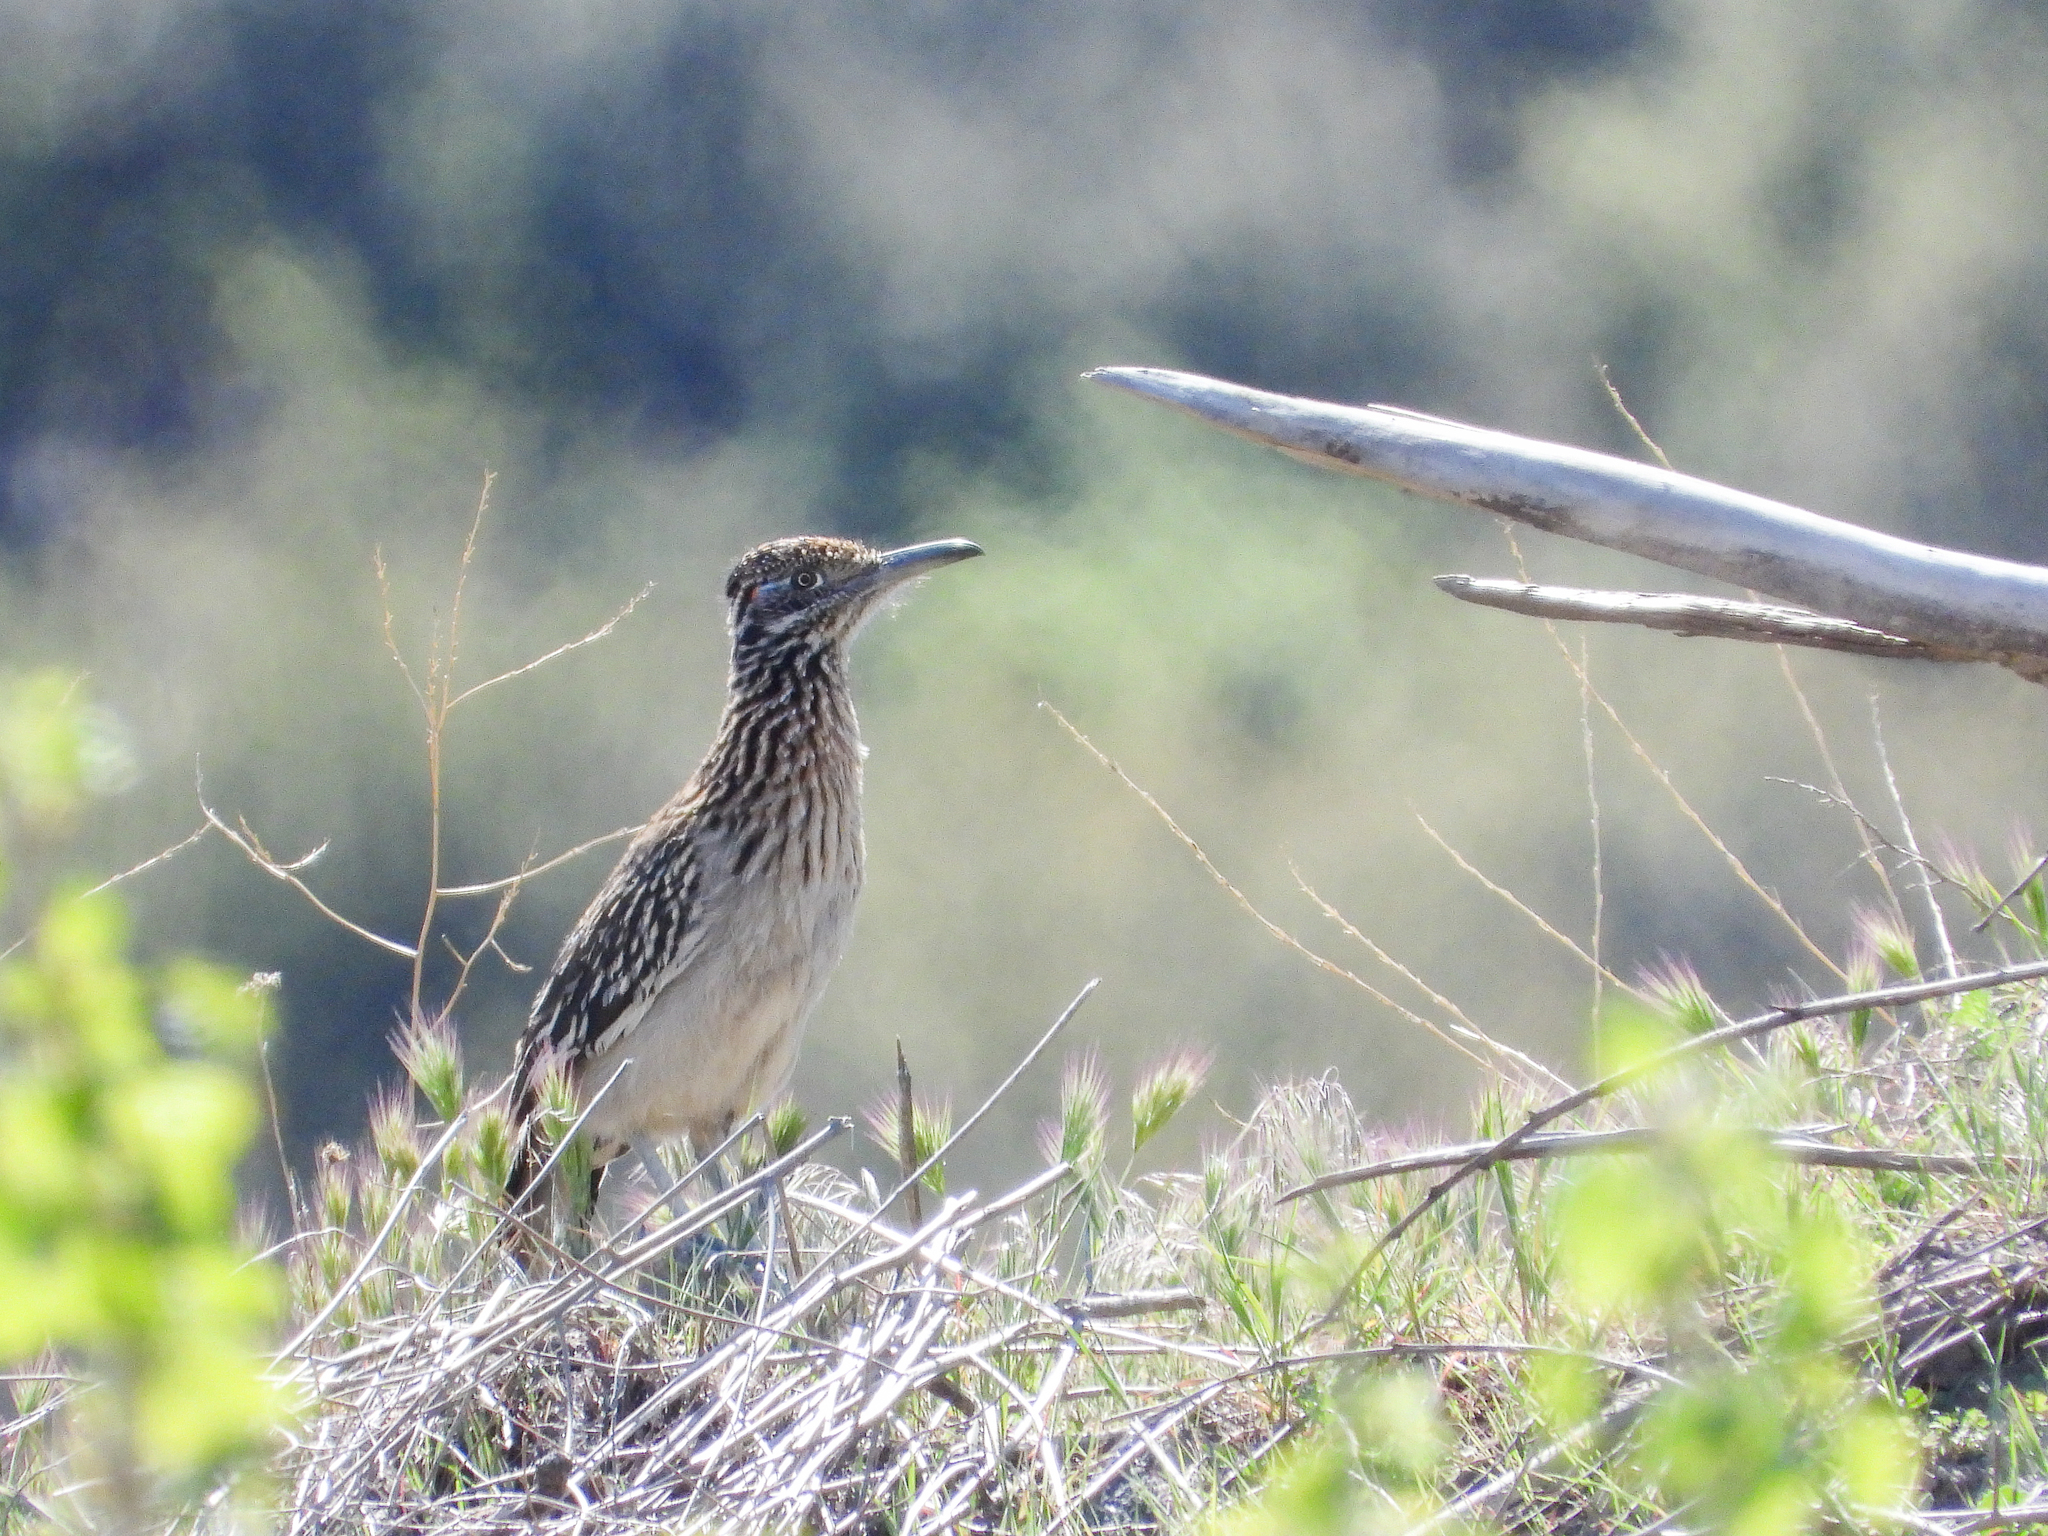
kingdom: Animalia
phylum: Chordata
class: Aves
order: Cuculiformes
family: Cuculidae
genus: Geococcyx
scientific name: Geococcyx californianus
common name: Greater roadrunner
